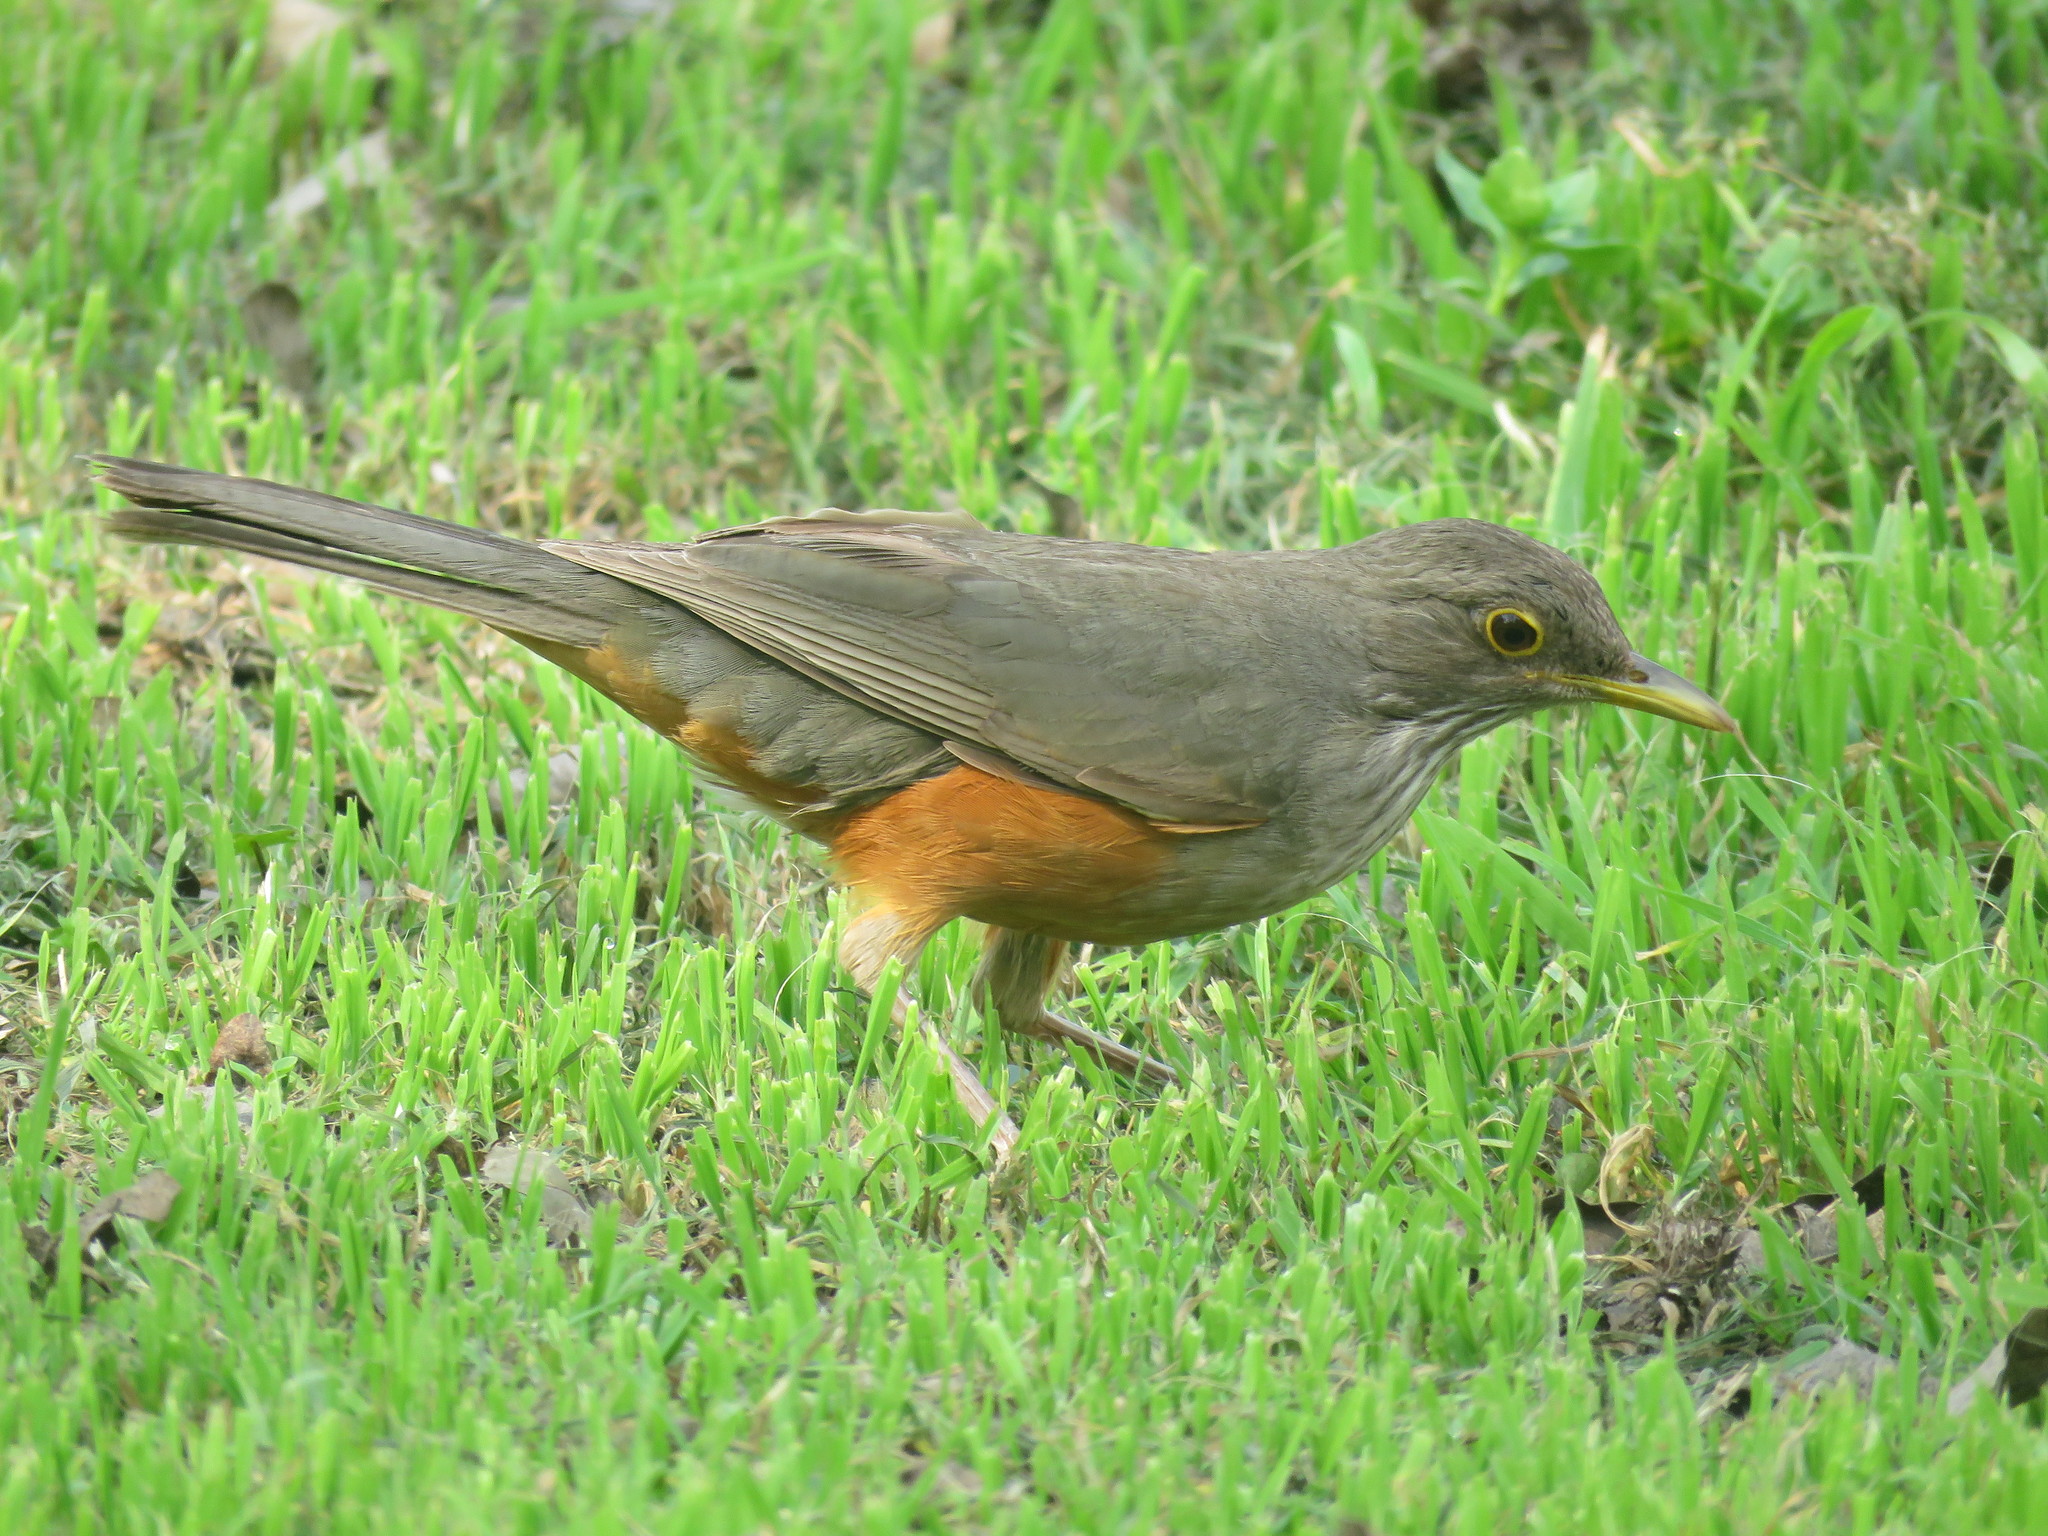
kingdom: Animalia
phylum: Chordata
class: Aves
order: Passeriformes
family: Turdidae
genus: Turdus
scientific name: Turdus rufiventris
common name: Rufous-bellied thrush
